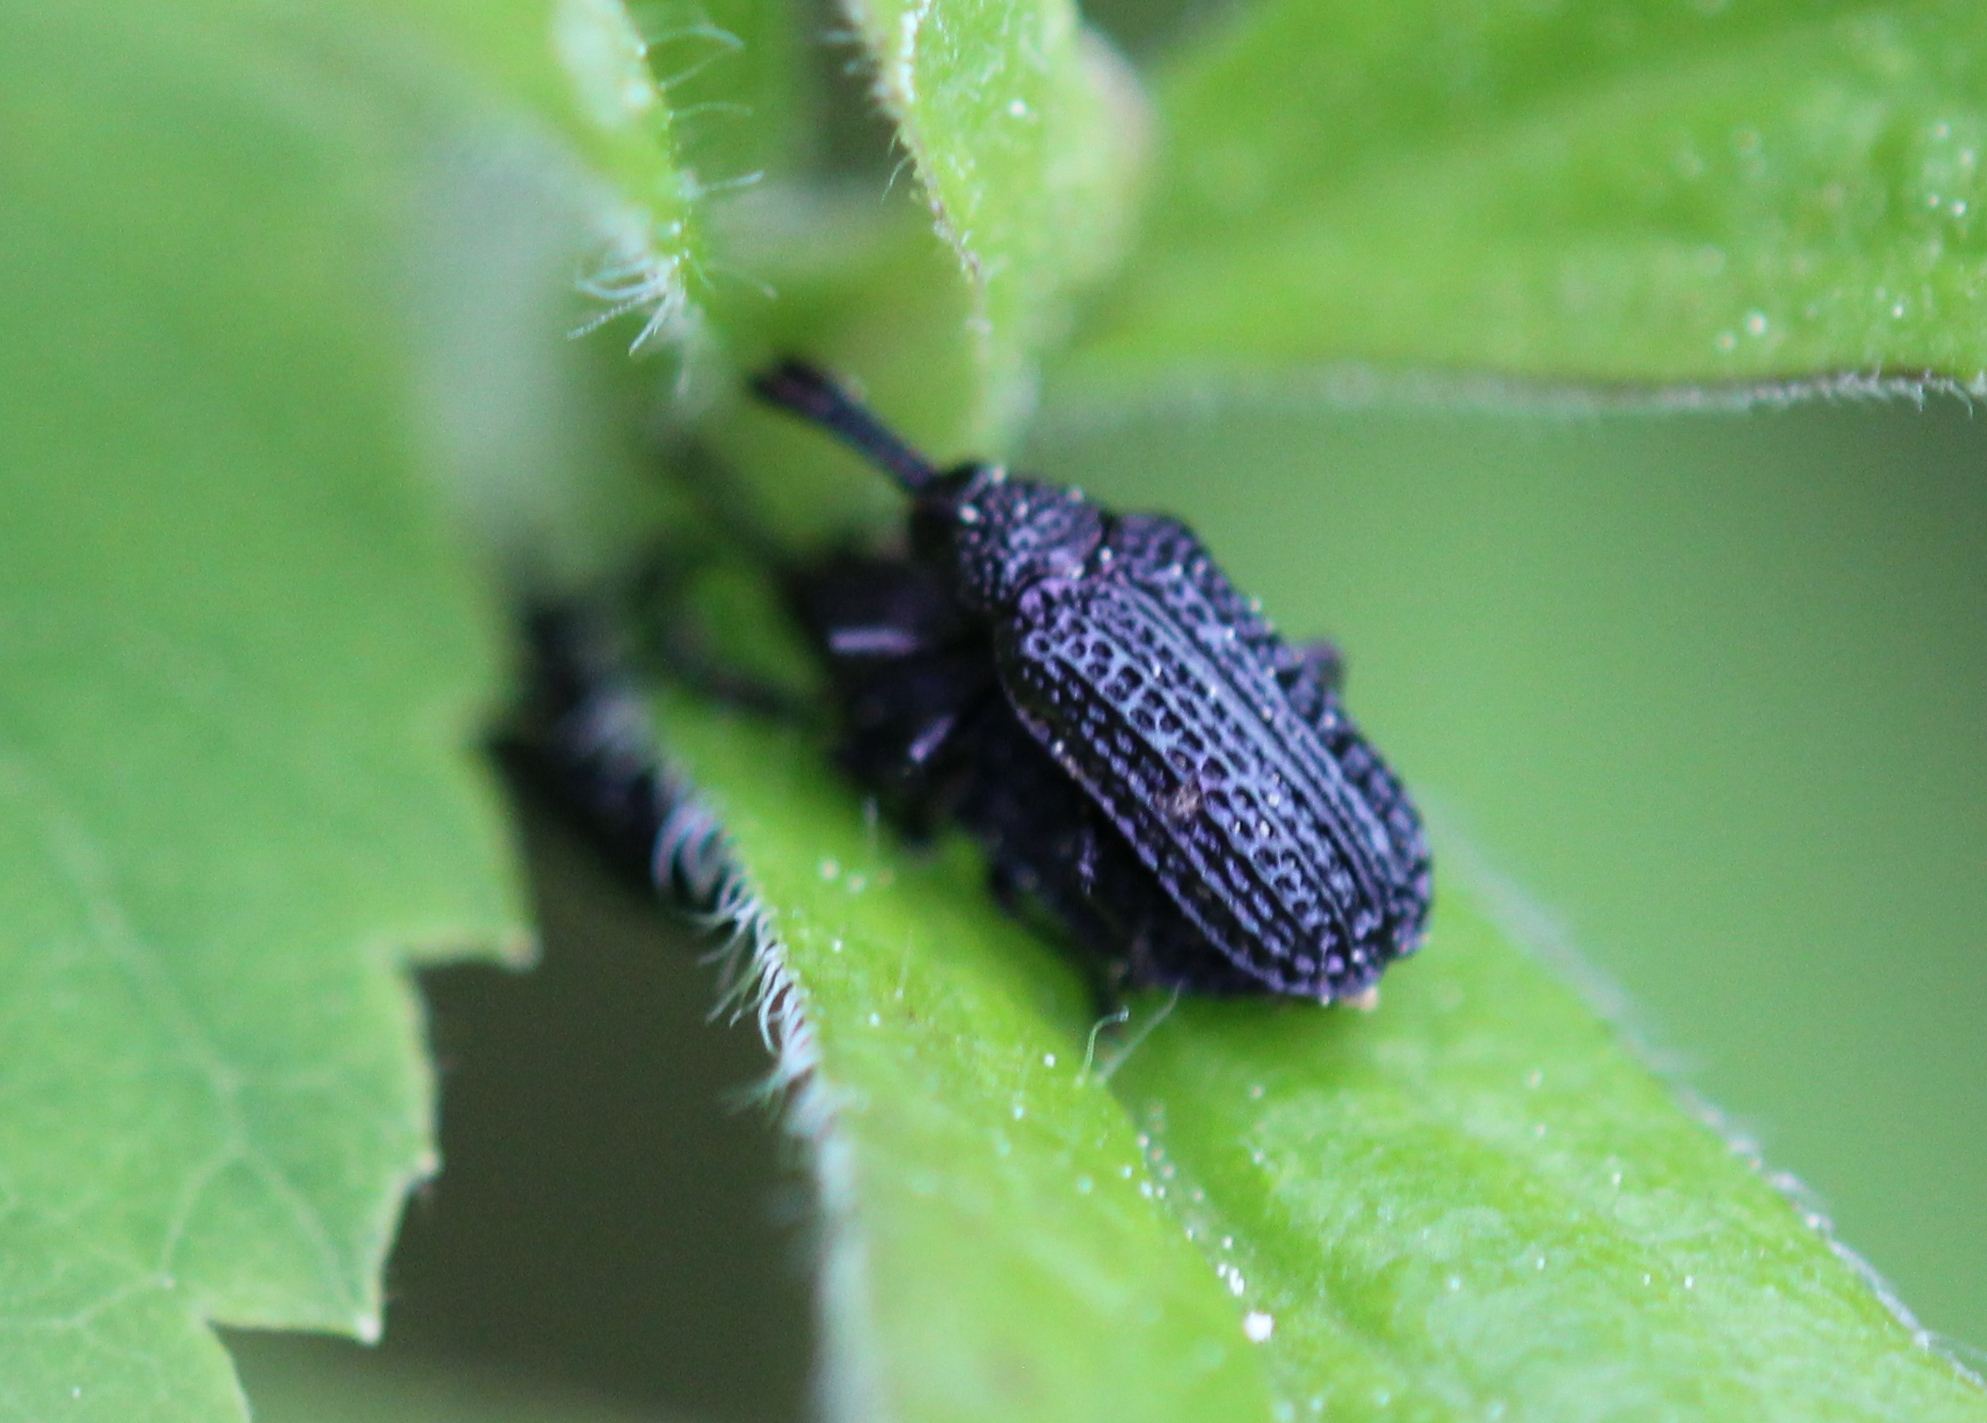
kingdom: Animalia
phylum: Arthropoda
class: Insecta
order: Coleoptera
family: Chrysomelidae
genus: Microrhopala
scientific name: Microrhopala excavata
